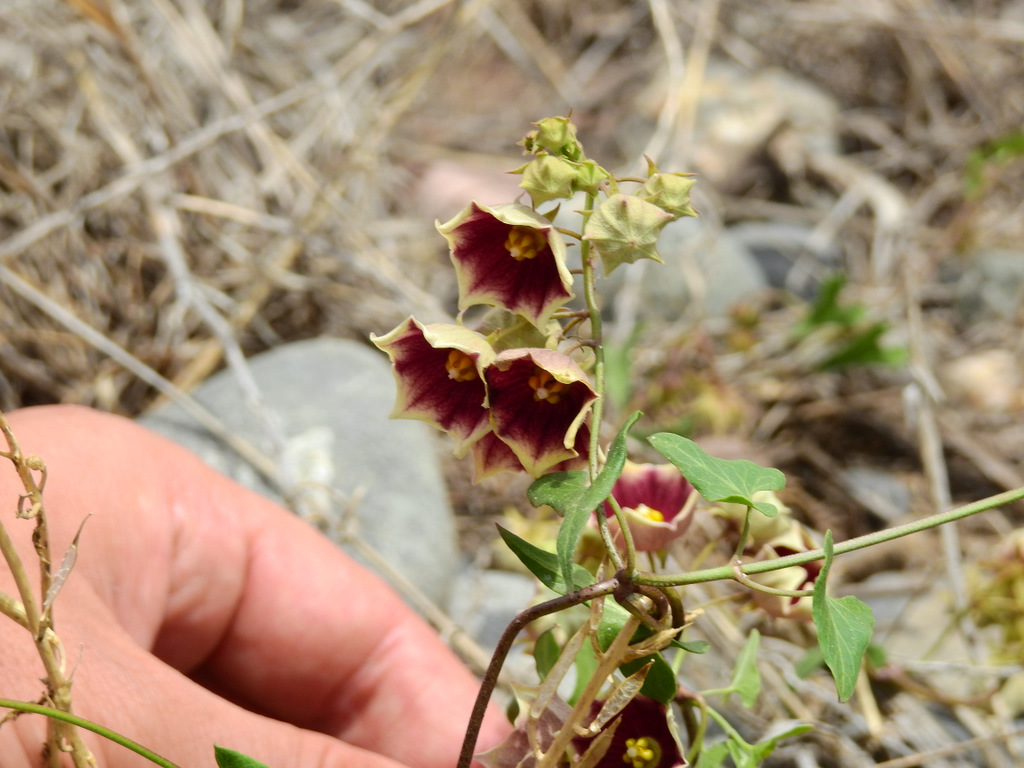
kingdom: Plantae
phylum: Tracheophyta
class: Magnoliopsida
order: Gentianales
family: Apocynaceae
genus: Philibertia
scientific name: Philibertia gilliesii
